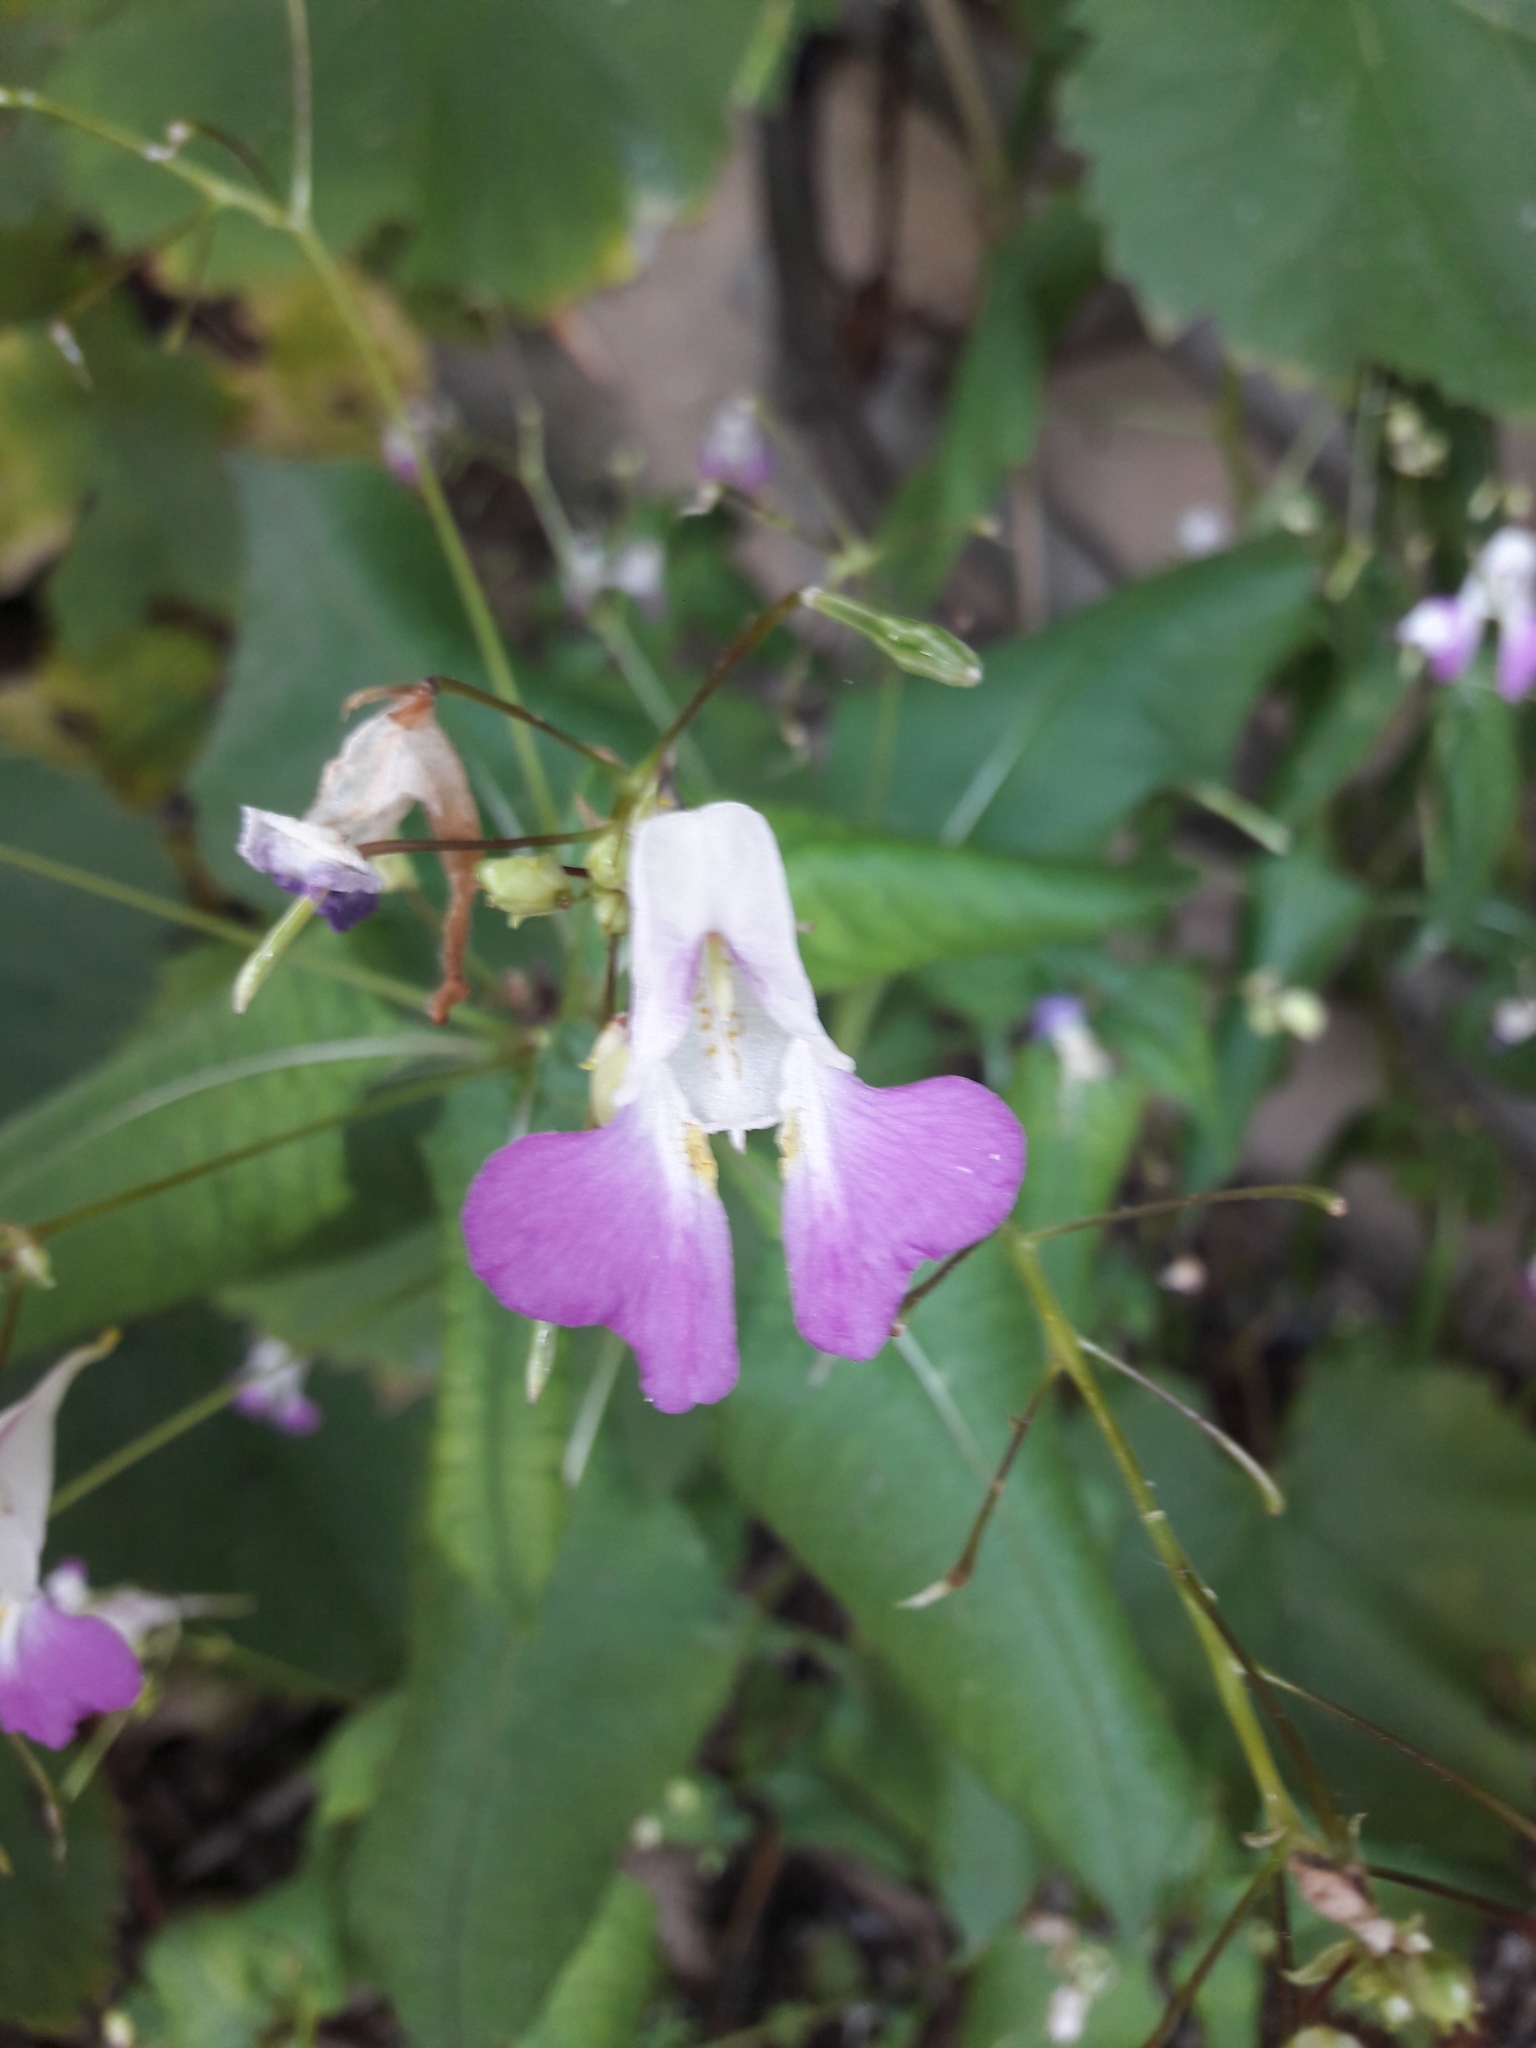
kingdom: Plantae
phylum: Tracheophyta
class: Magnoliopsida
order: Ericales
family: Balsaminaceae
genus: Impatiens
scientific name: Impatiens balfourii
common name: Balfour's touch-me-not
